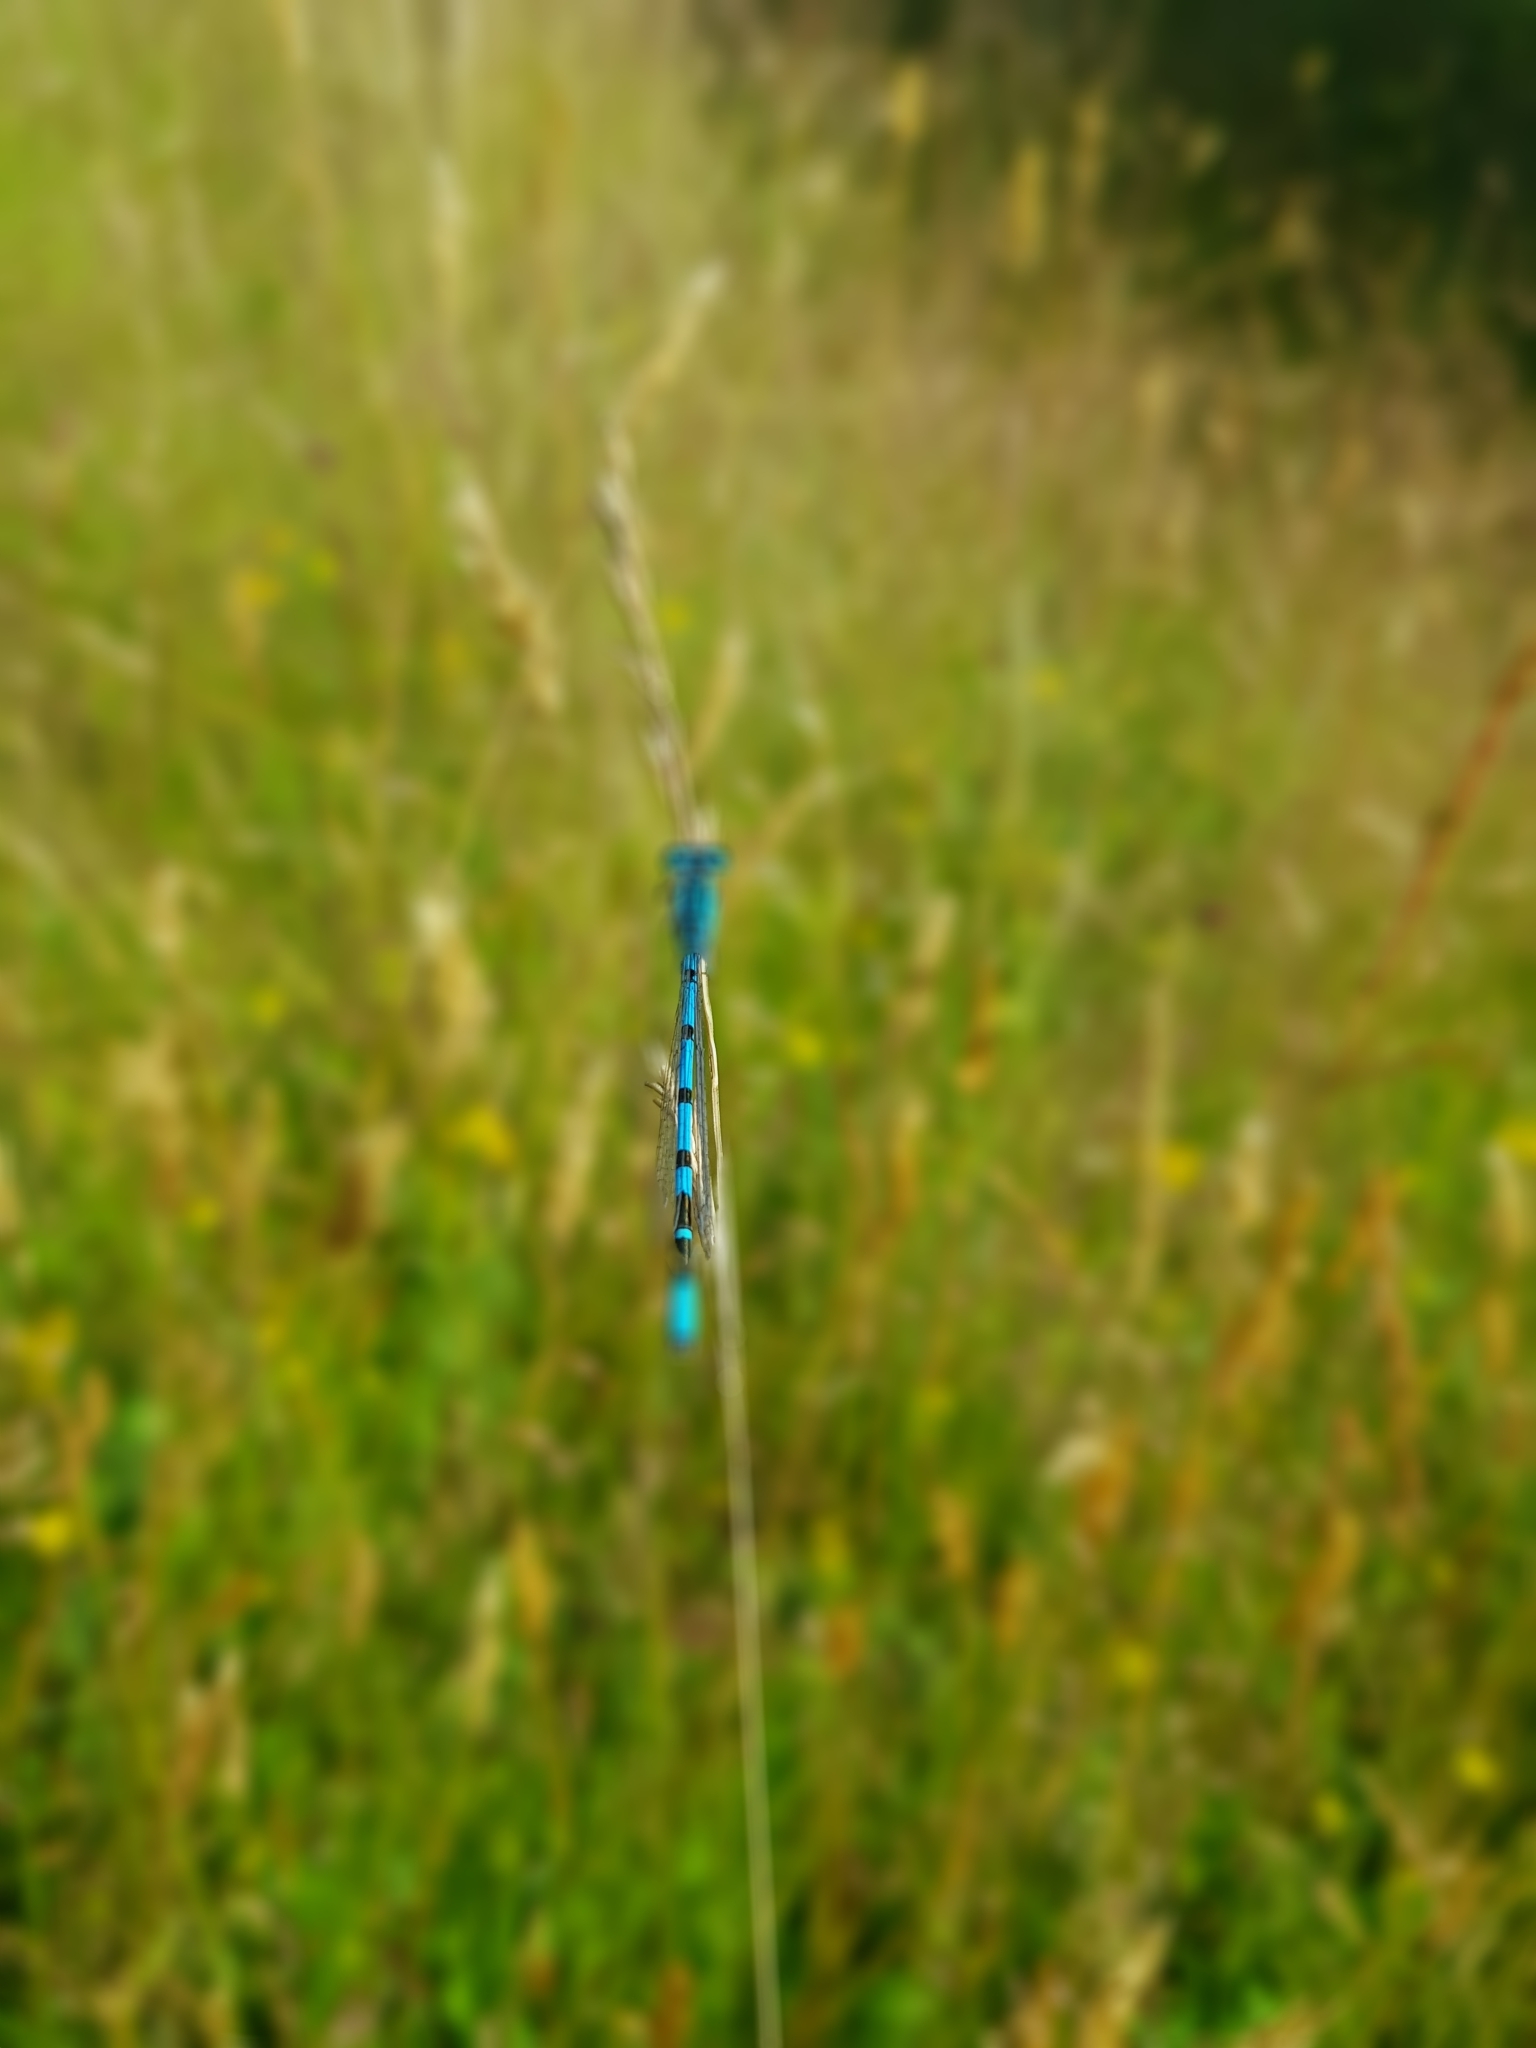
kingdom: Animalia
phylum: Arthropoda
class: Insecta
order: Odonata
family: Coenagrionidae
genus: Enallagma
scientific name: Enallagma cyathigerum
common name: Common blue damselfly
